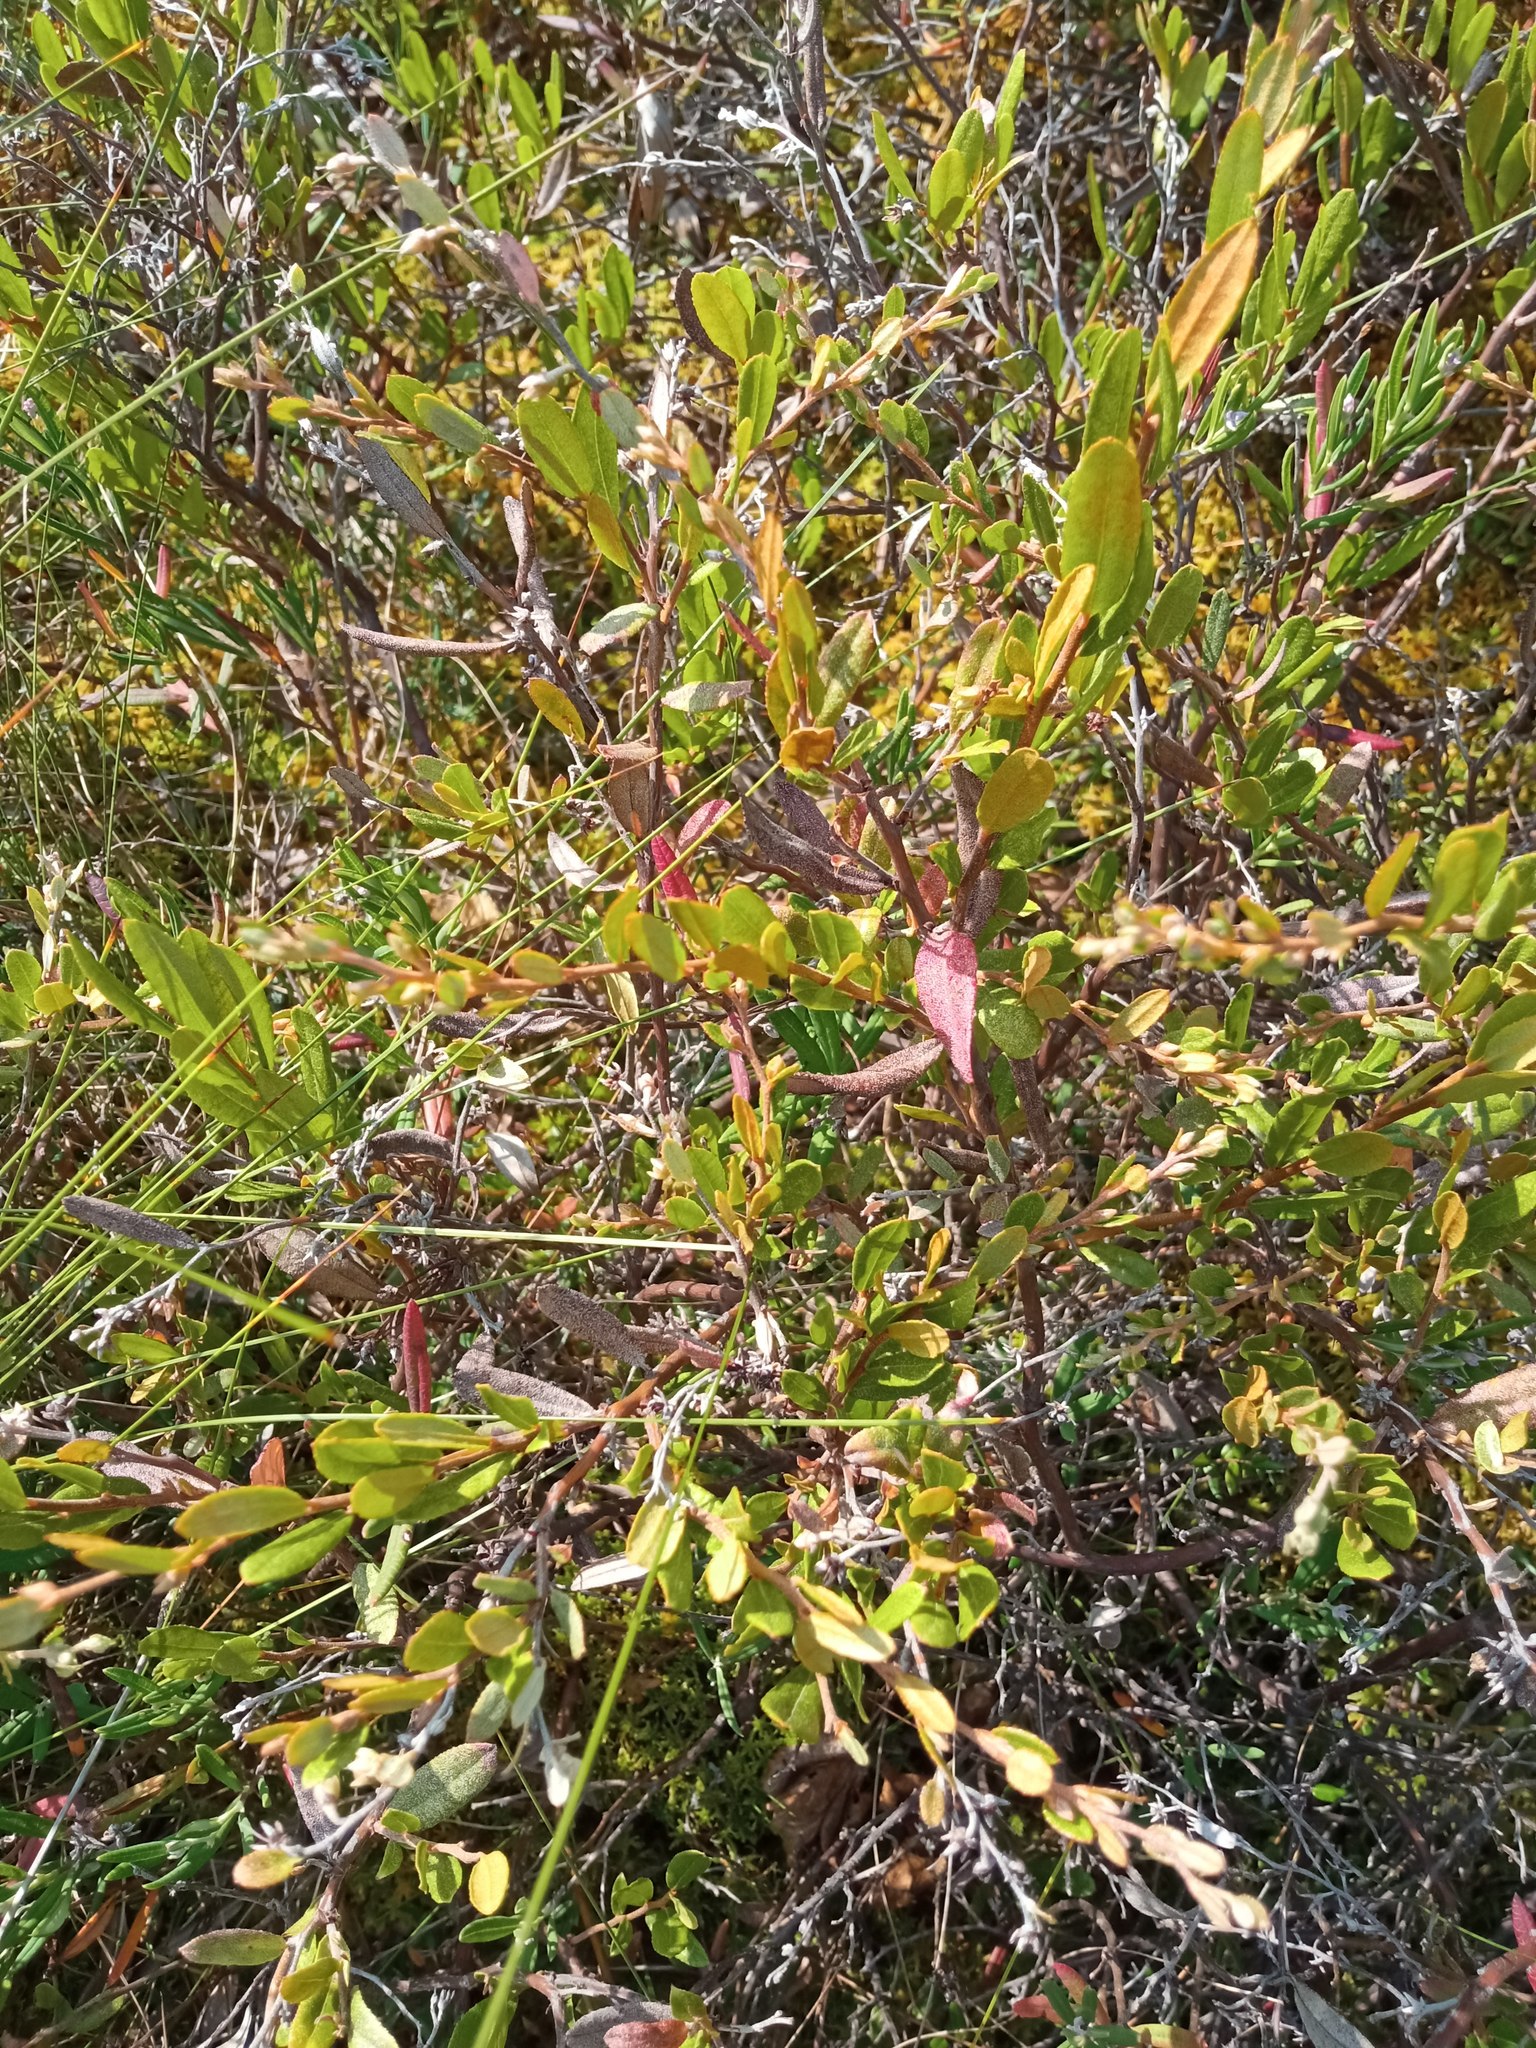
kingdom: Plantae
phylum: Tracheophyta
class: Magnoliopsida
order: Ericales
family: Ericaceae
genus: Chamaedaphne
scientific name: Chamaedaphne calyculata
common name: Leatherleaf
